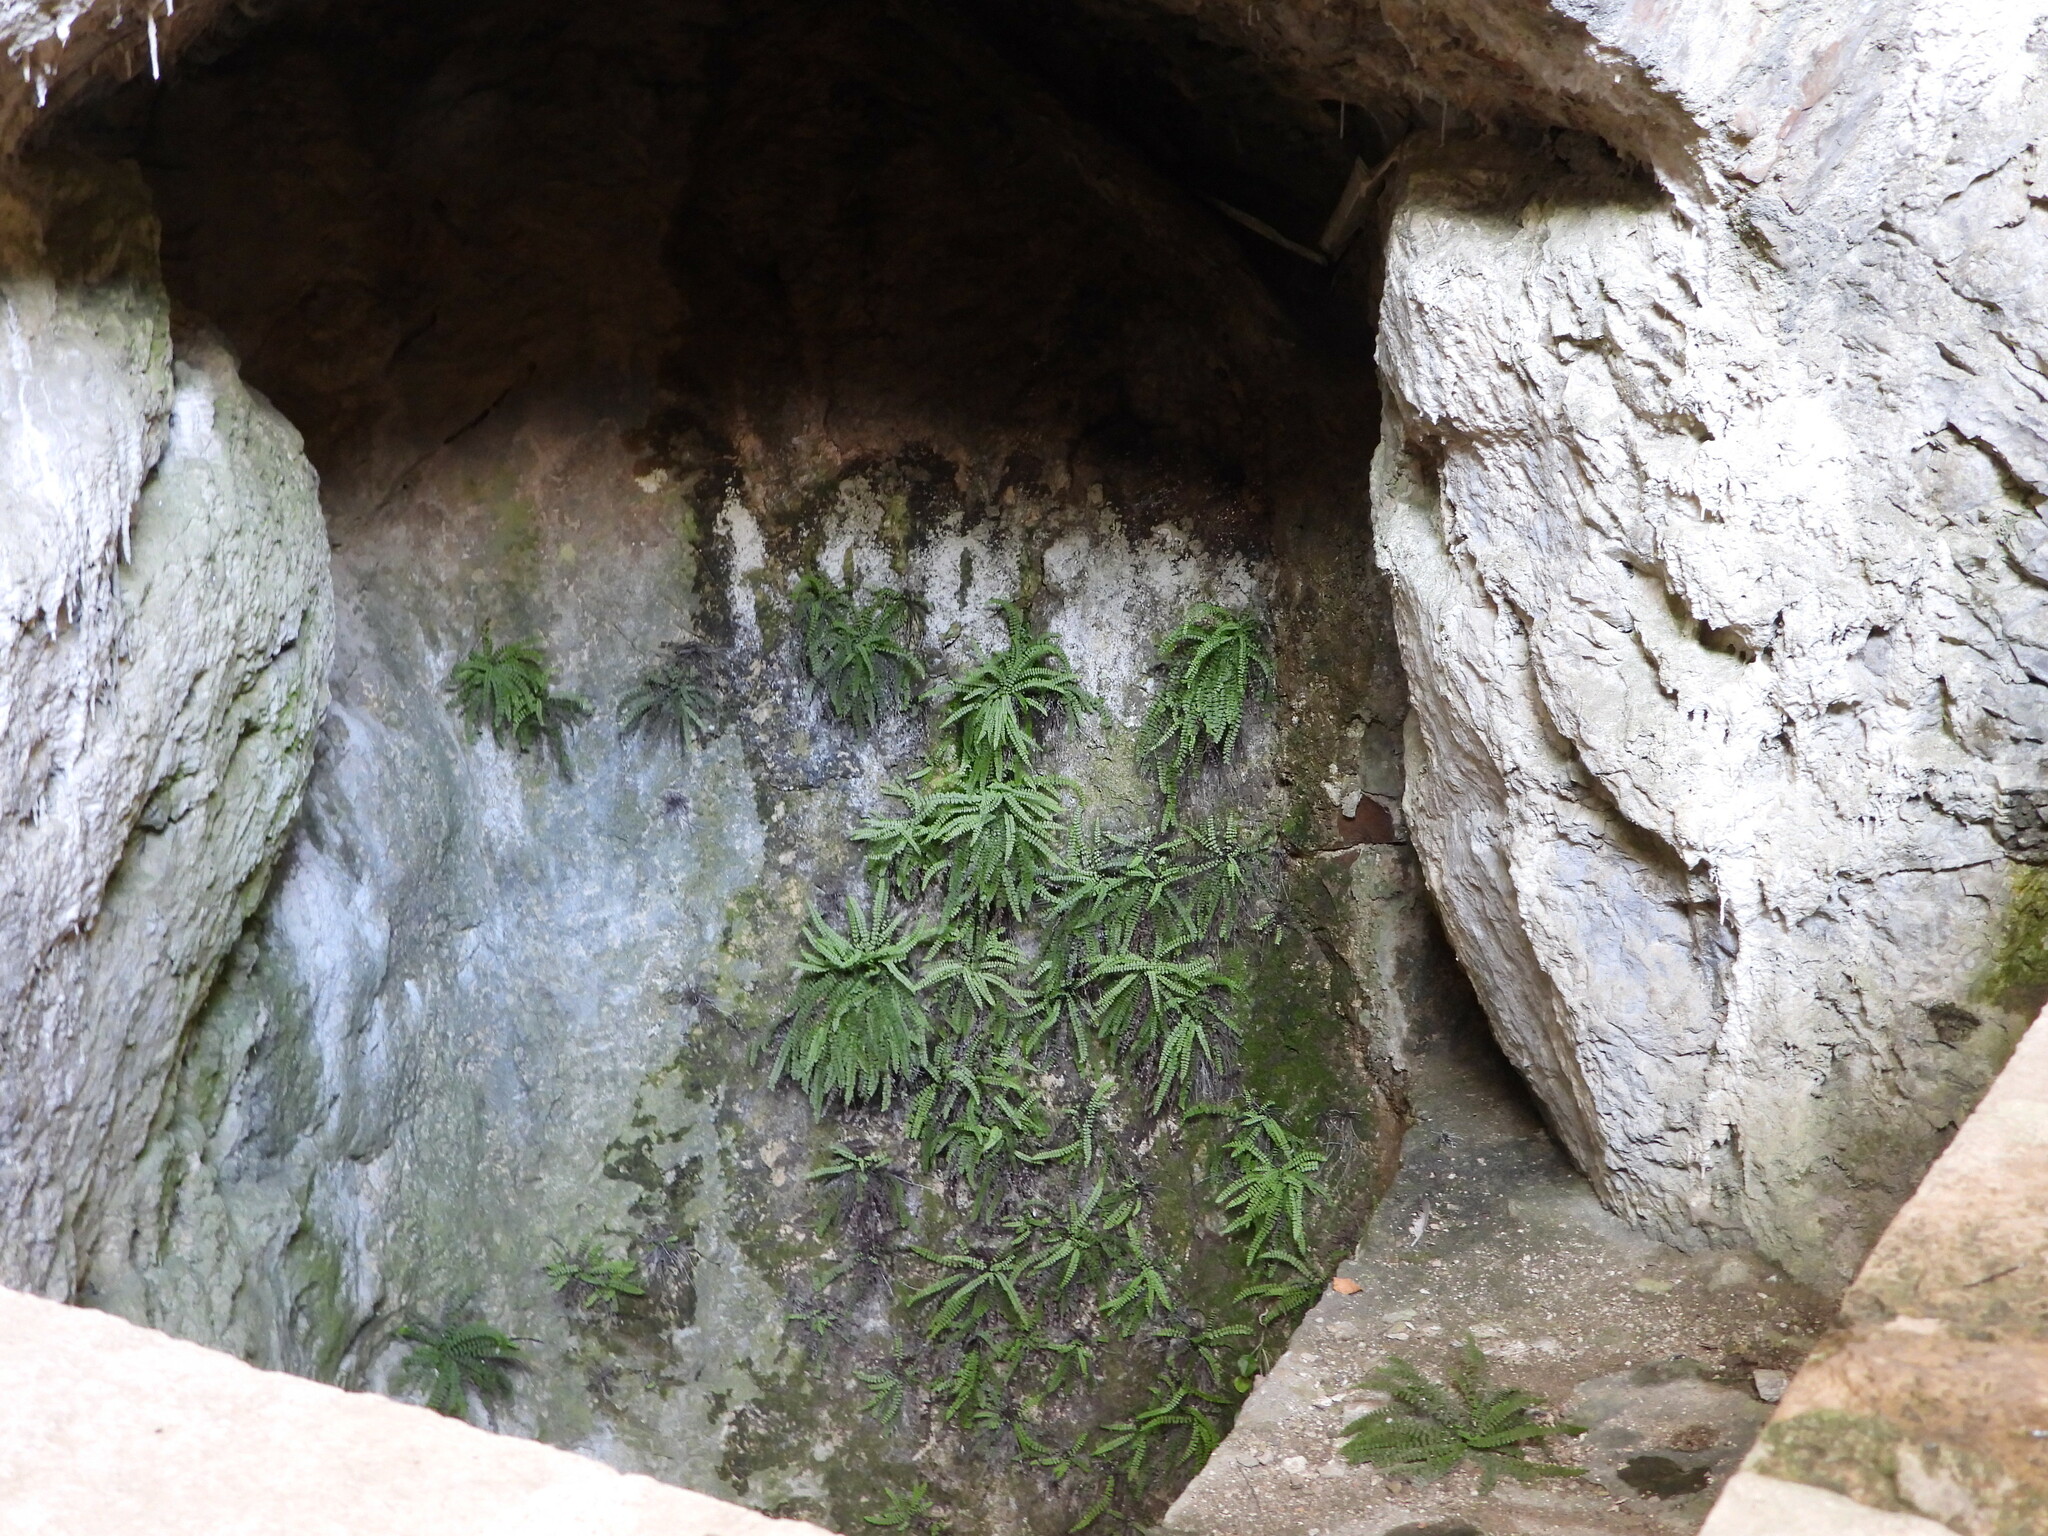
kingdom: Plantae
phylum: Tracheophyta
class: Polypodiopsida
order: Polypodiales
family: Aspleniaceae
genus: Asplenium
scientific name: Asplenium trichomanes
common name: Maidenhair spleenwort
